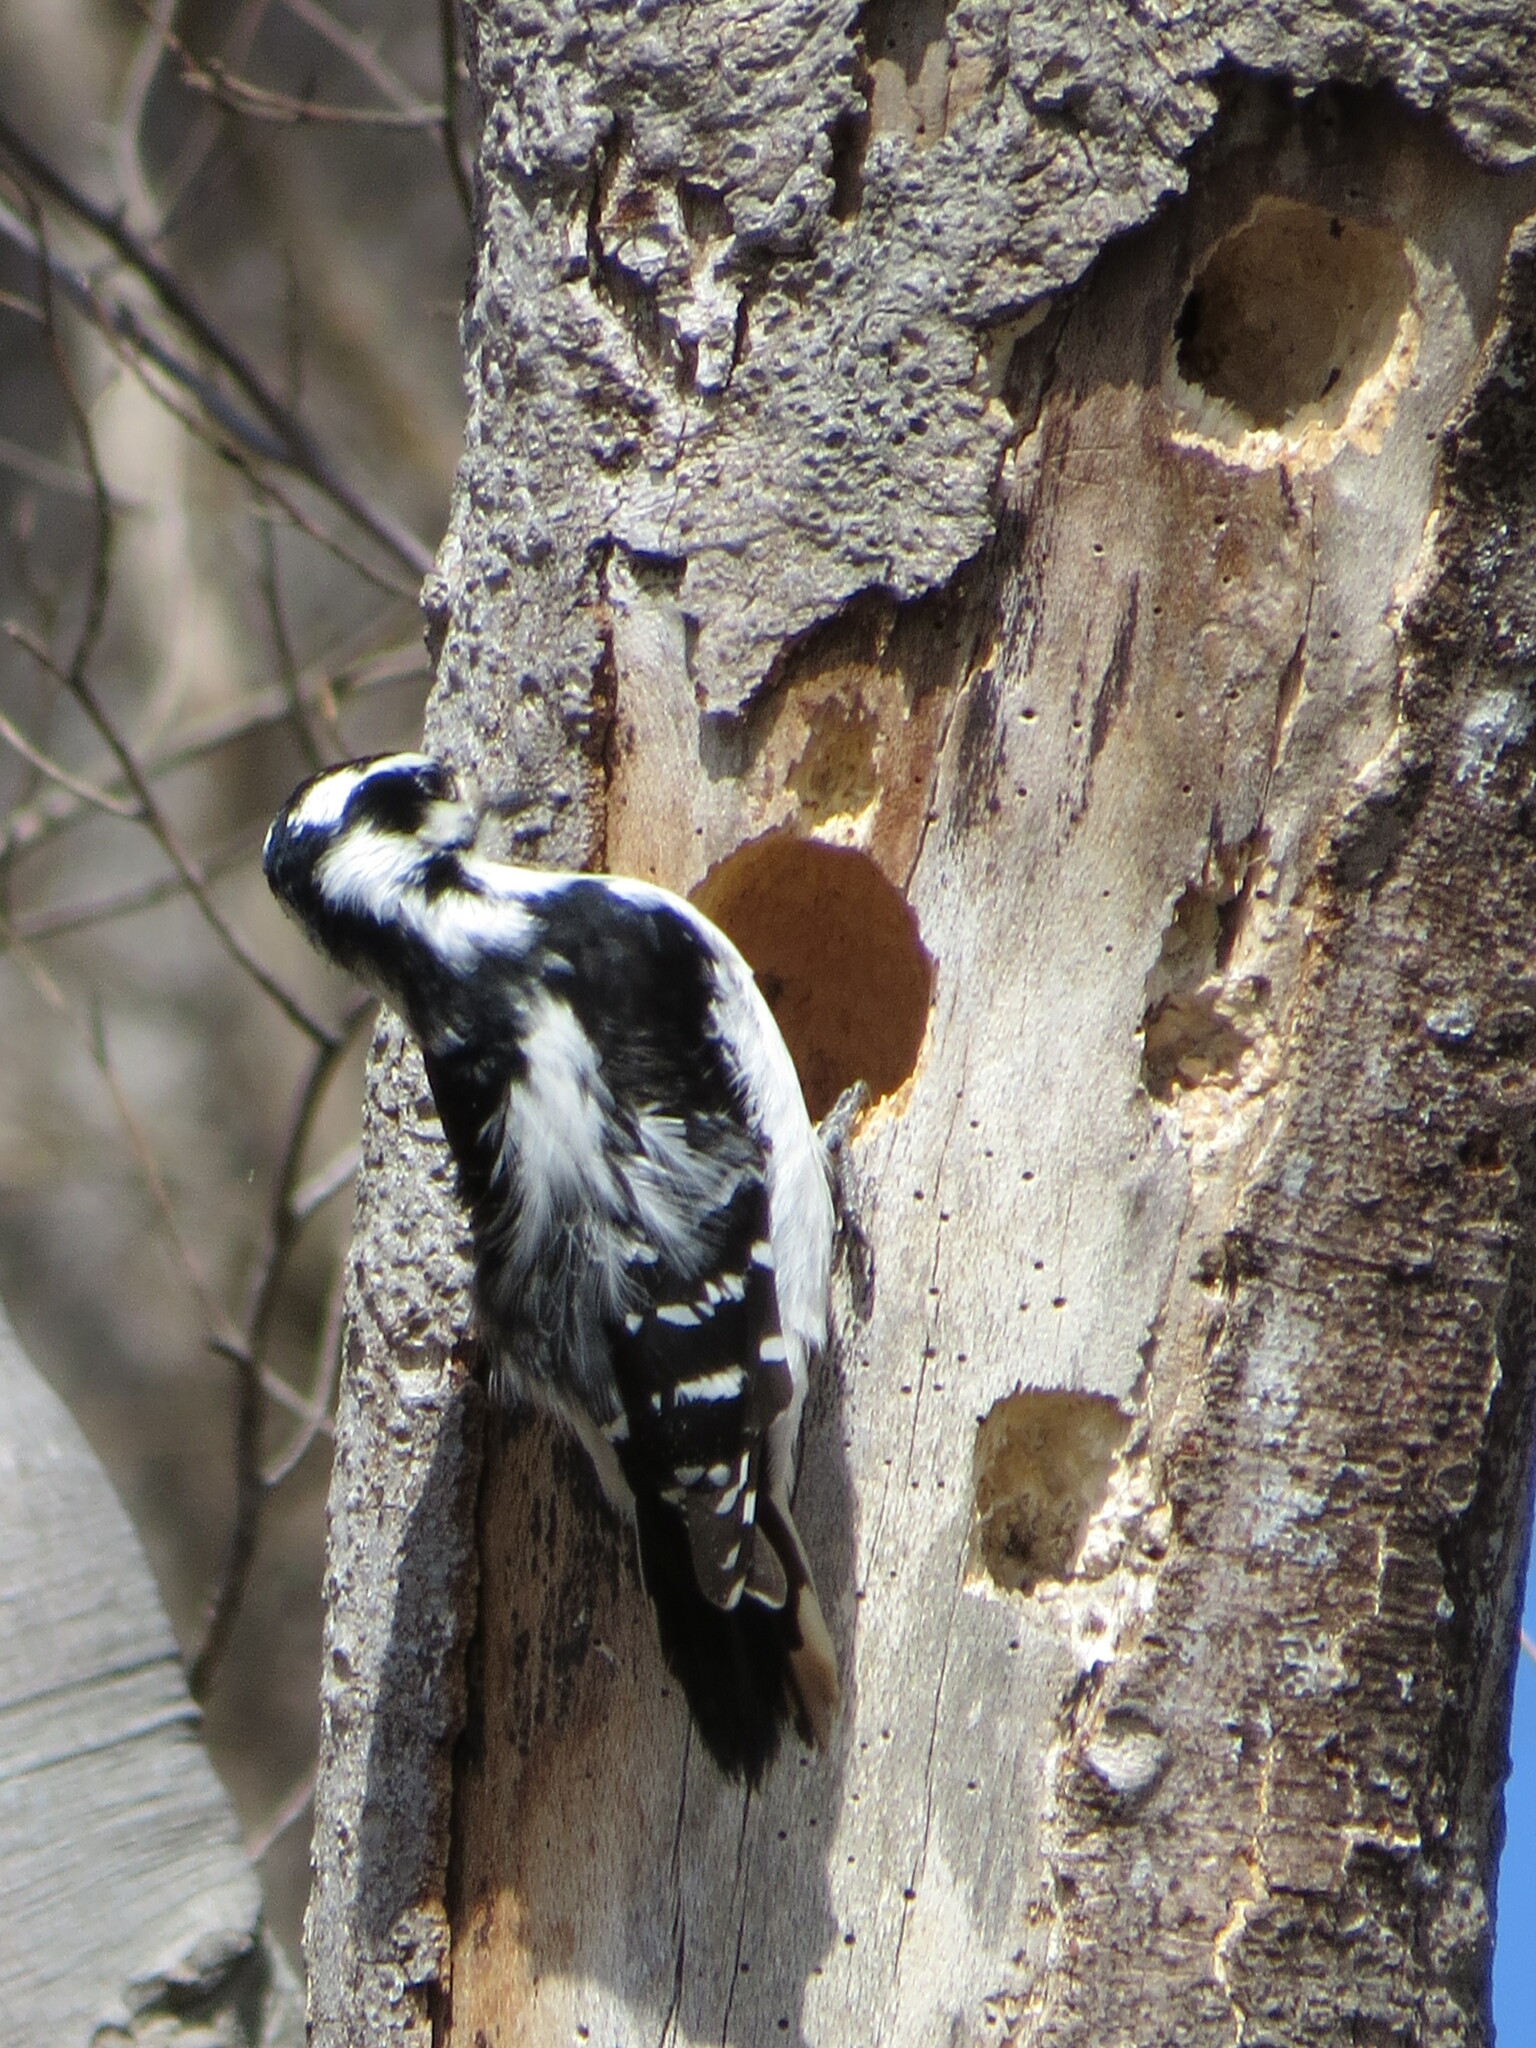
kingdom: Animalia
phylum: Chordata
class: Aves
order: Piciformes
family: Picidae
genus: Leuconotopicus
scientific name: Leuconotopicus villosus
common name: Hairy woodpecker
